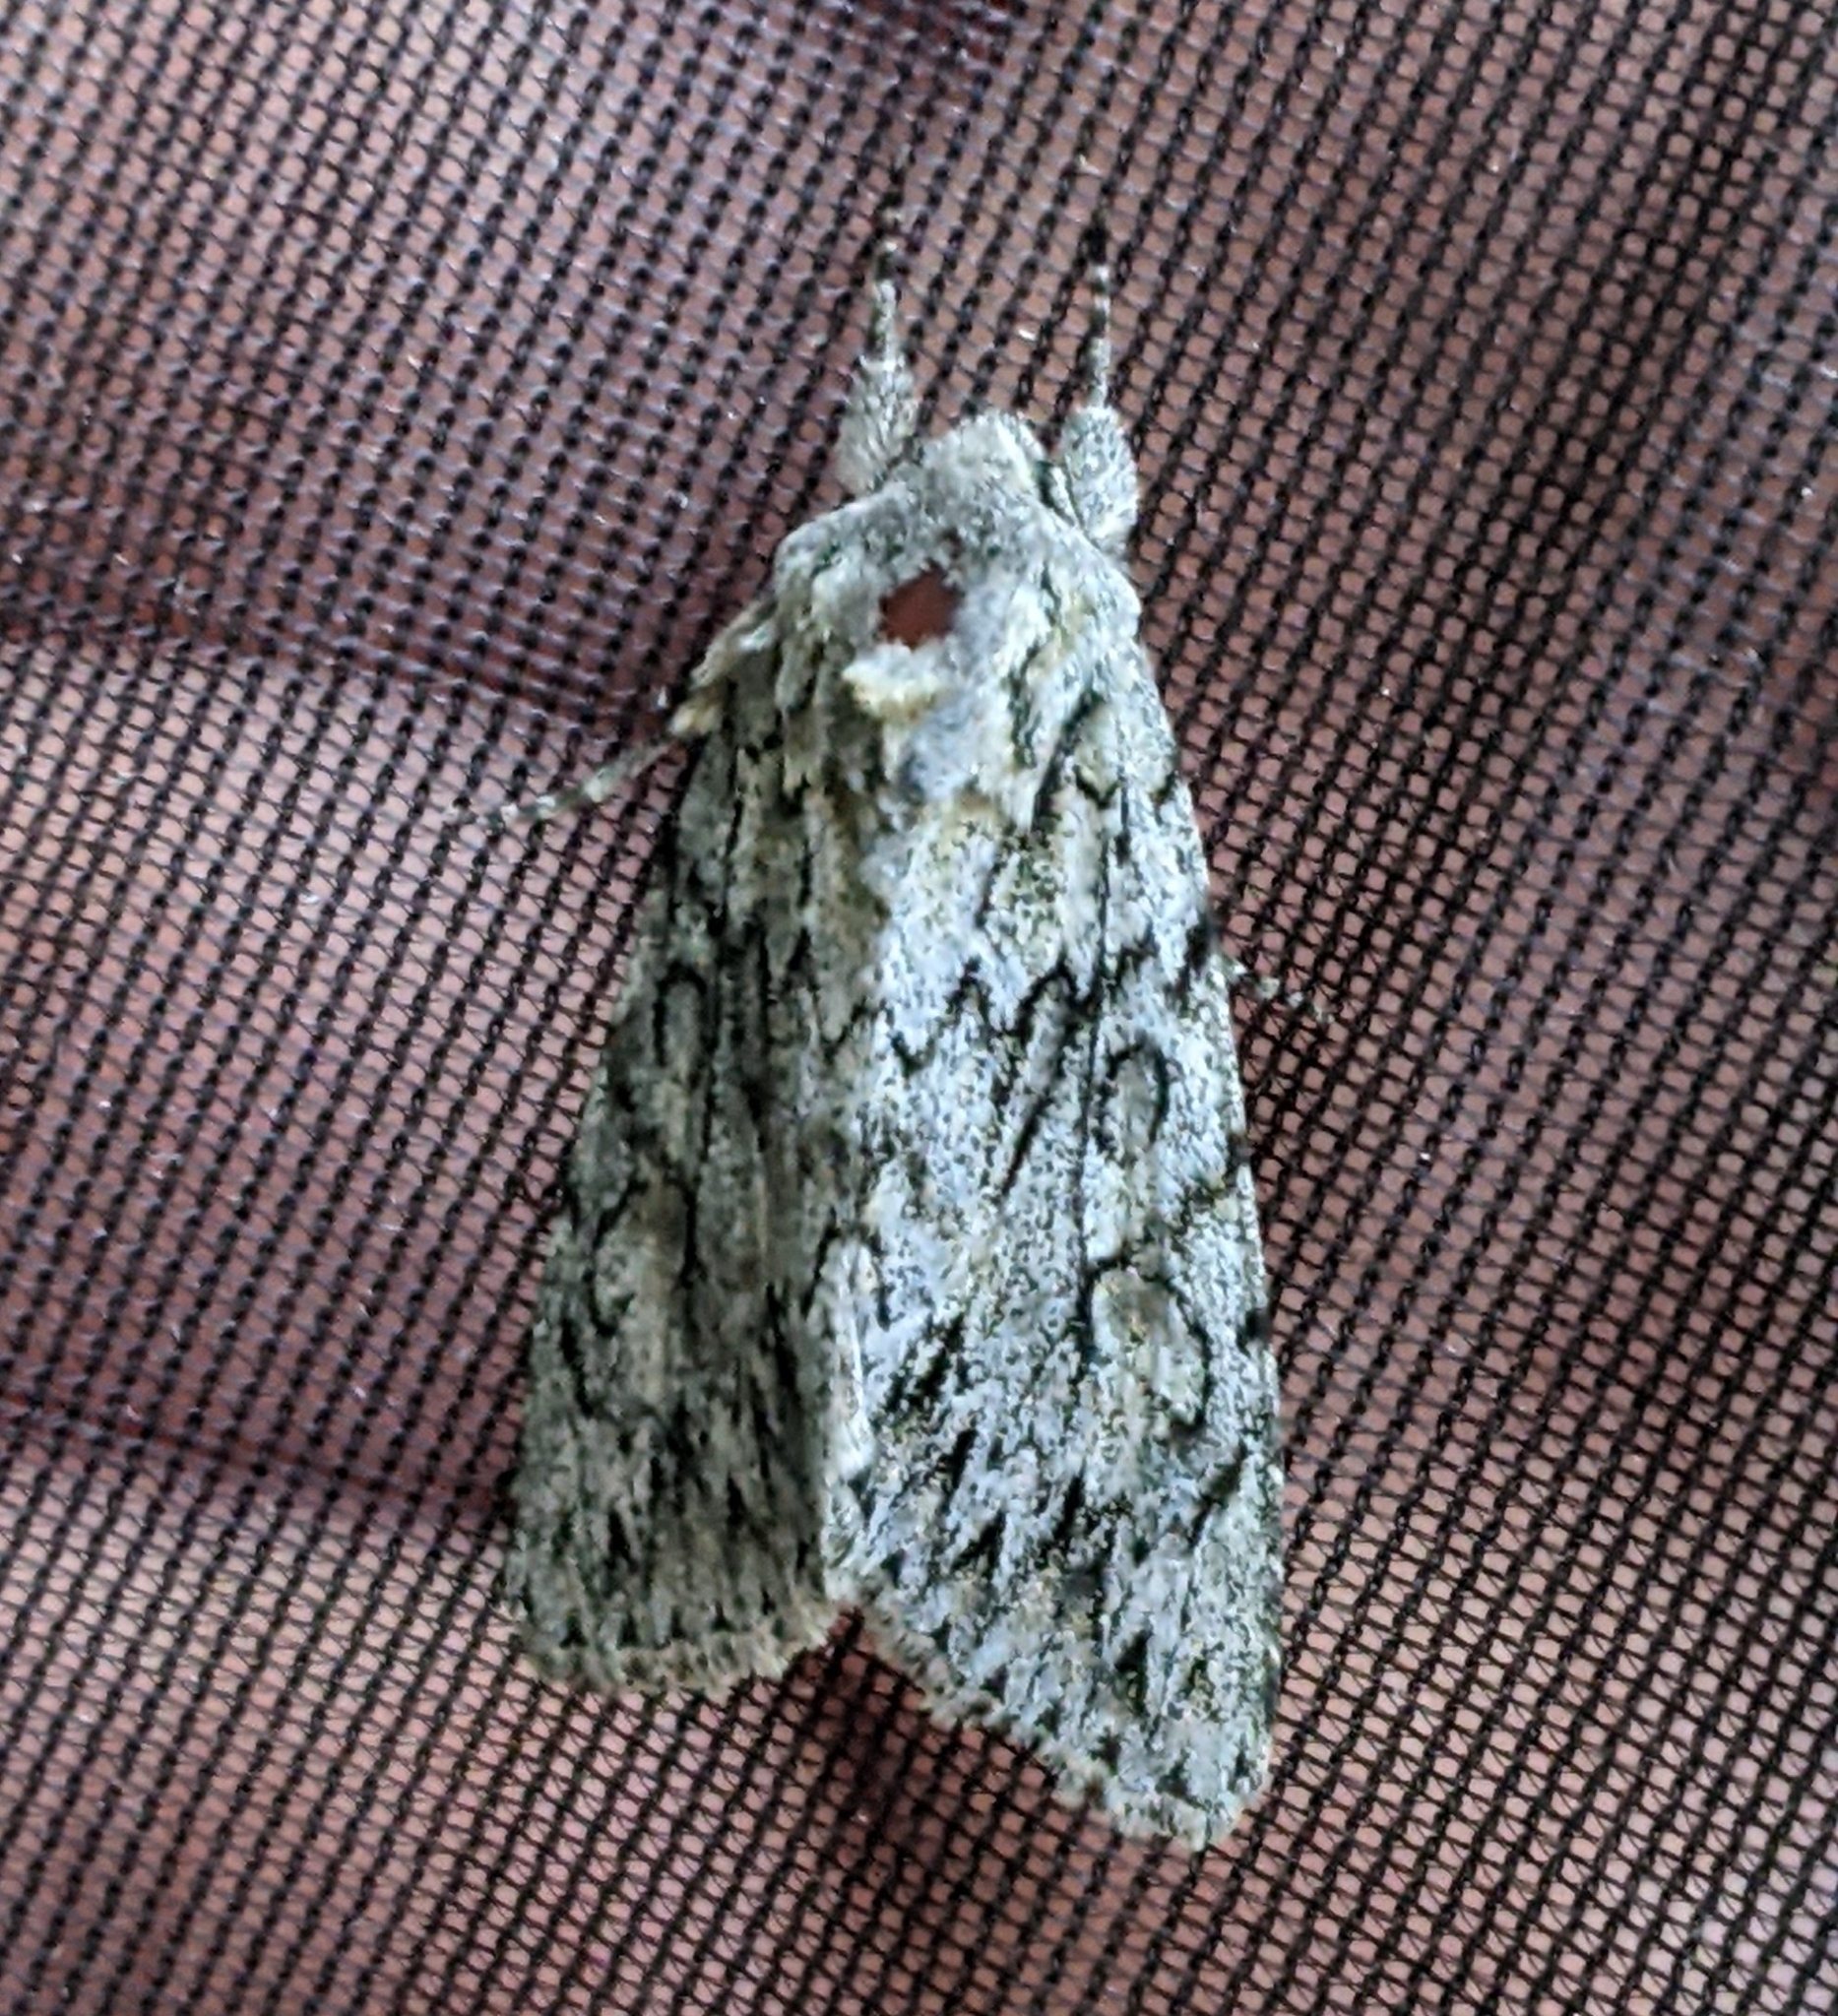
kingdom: Animalia
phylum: Arthropoda
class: Insecta
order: Lepidoptera
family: Noctuidae
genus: Andropolia
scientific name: Andropolia aedon
